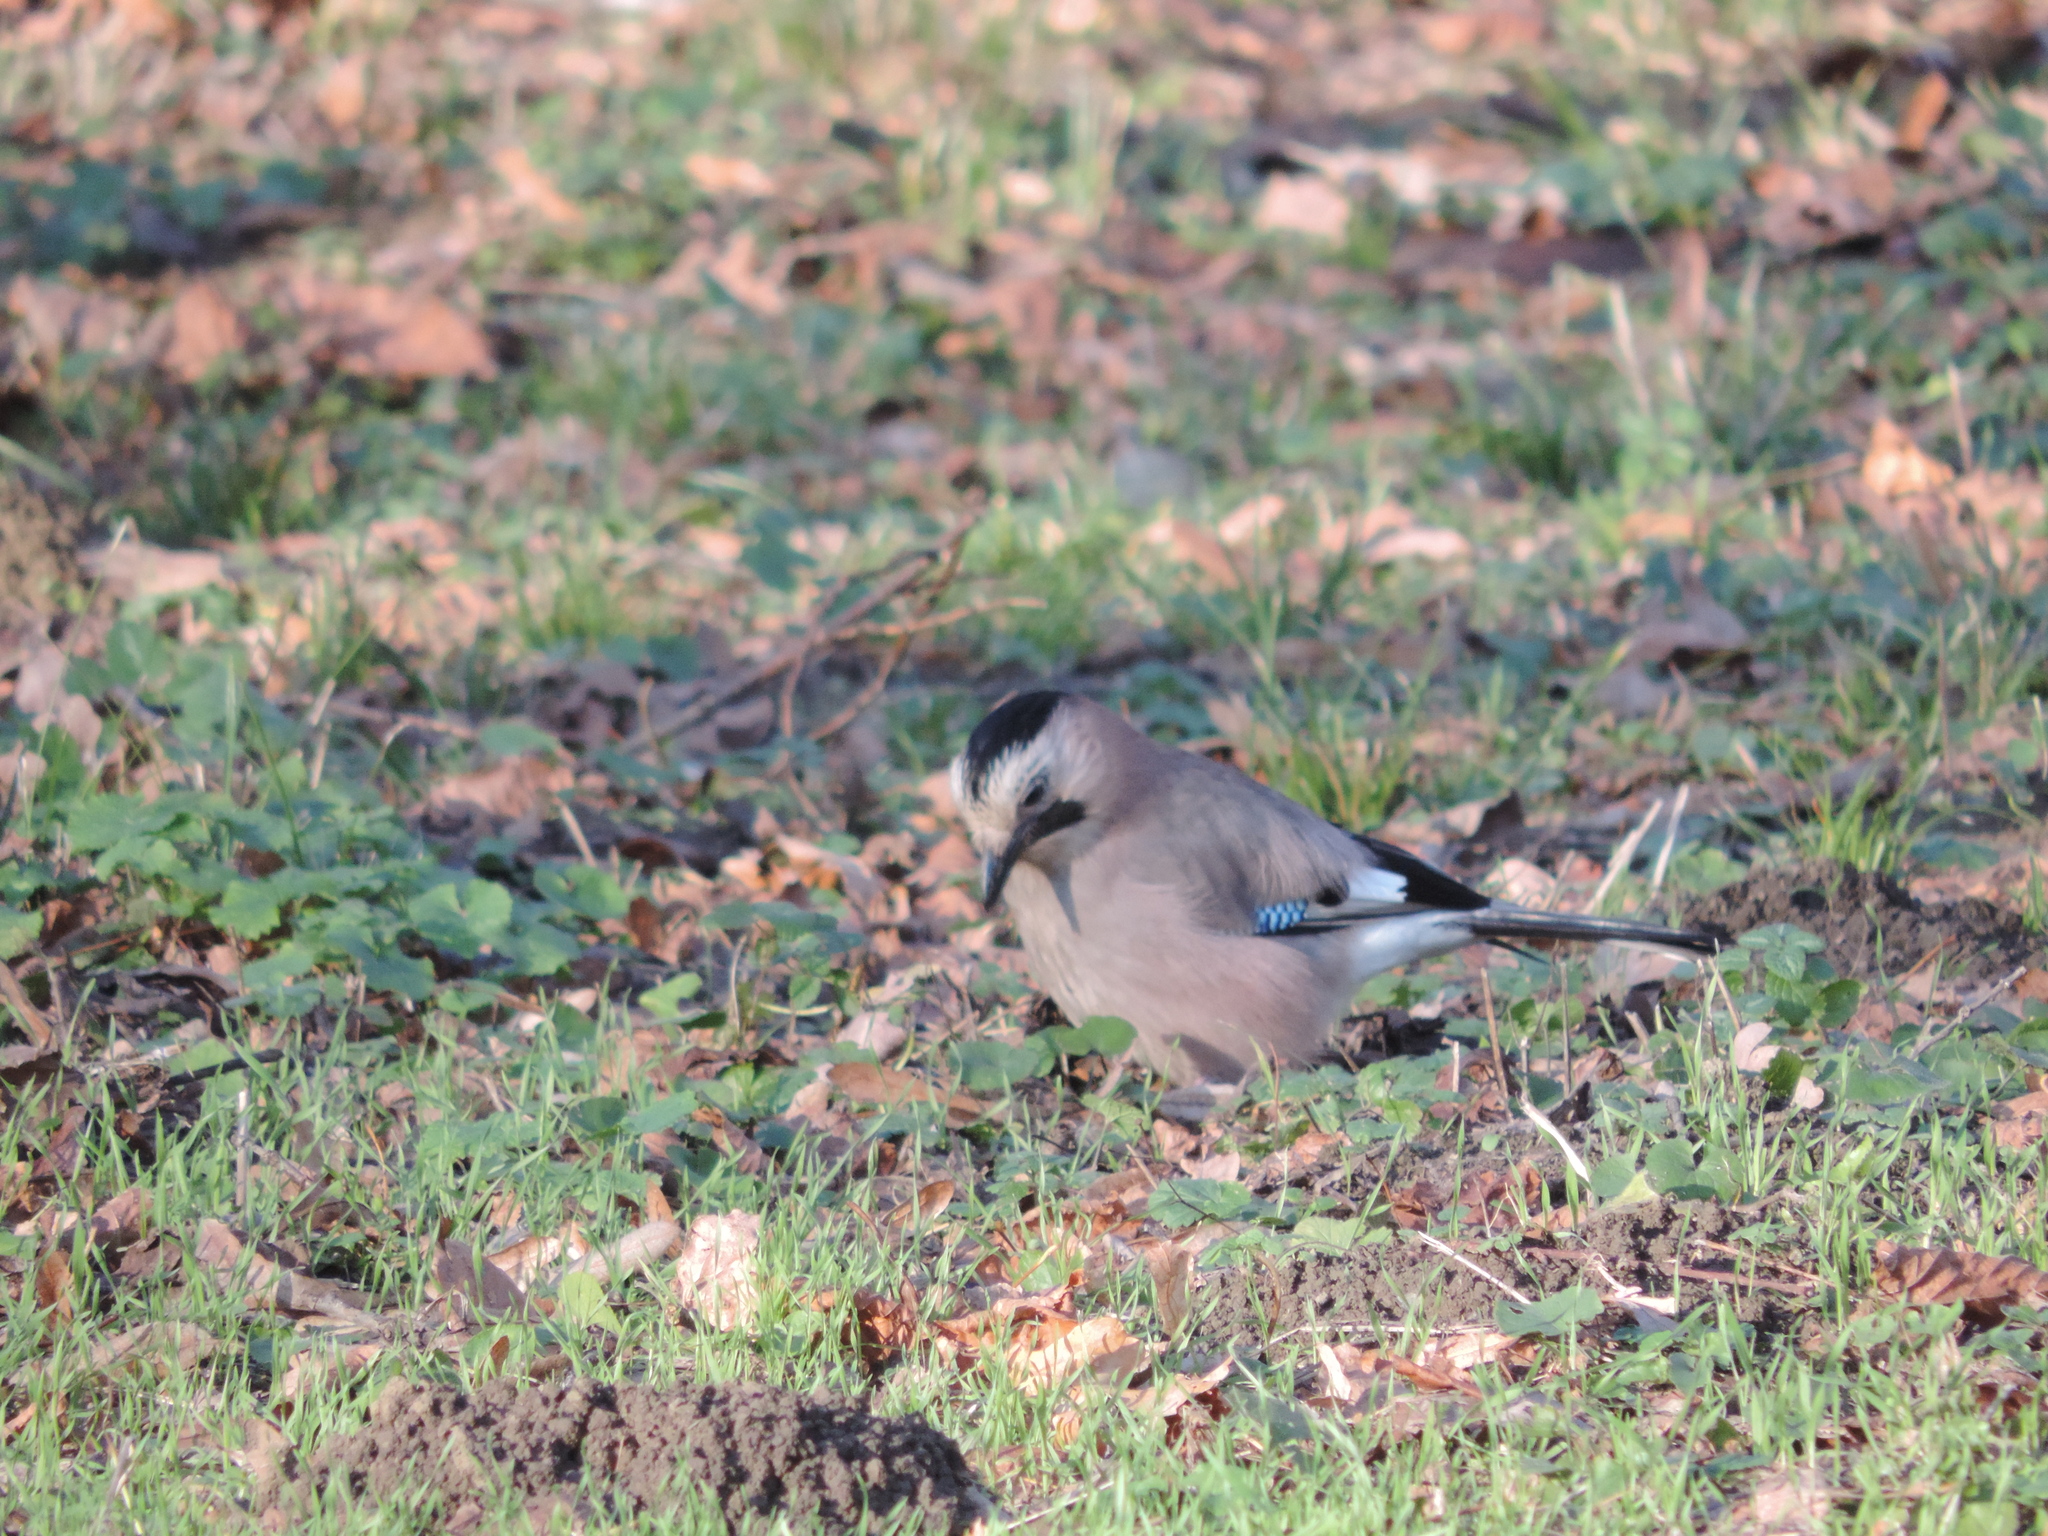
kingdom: Animalia
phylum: Chordata
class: Aves
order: Passeriformes
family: Corvidae
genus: Garrulus
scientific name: Garrulus glandarius
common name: Eurasian jay
